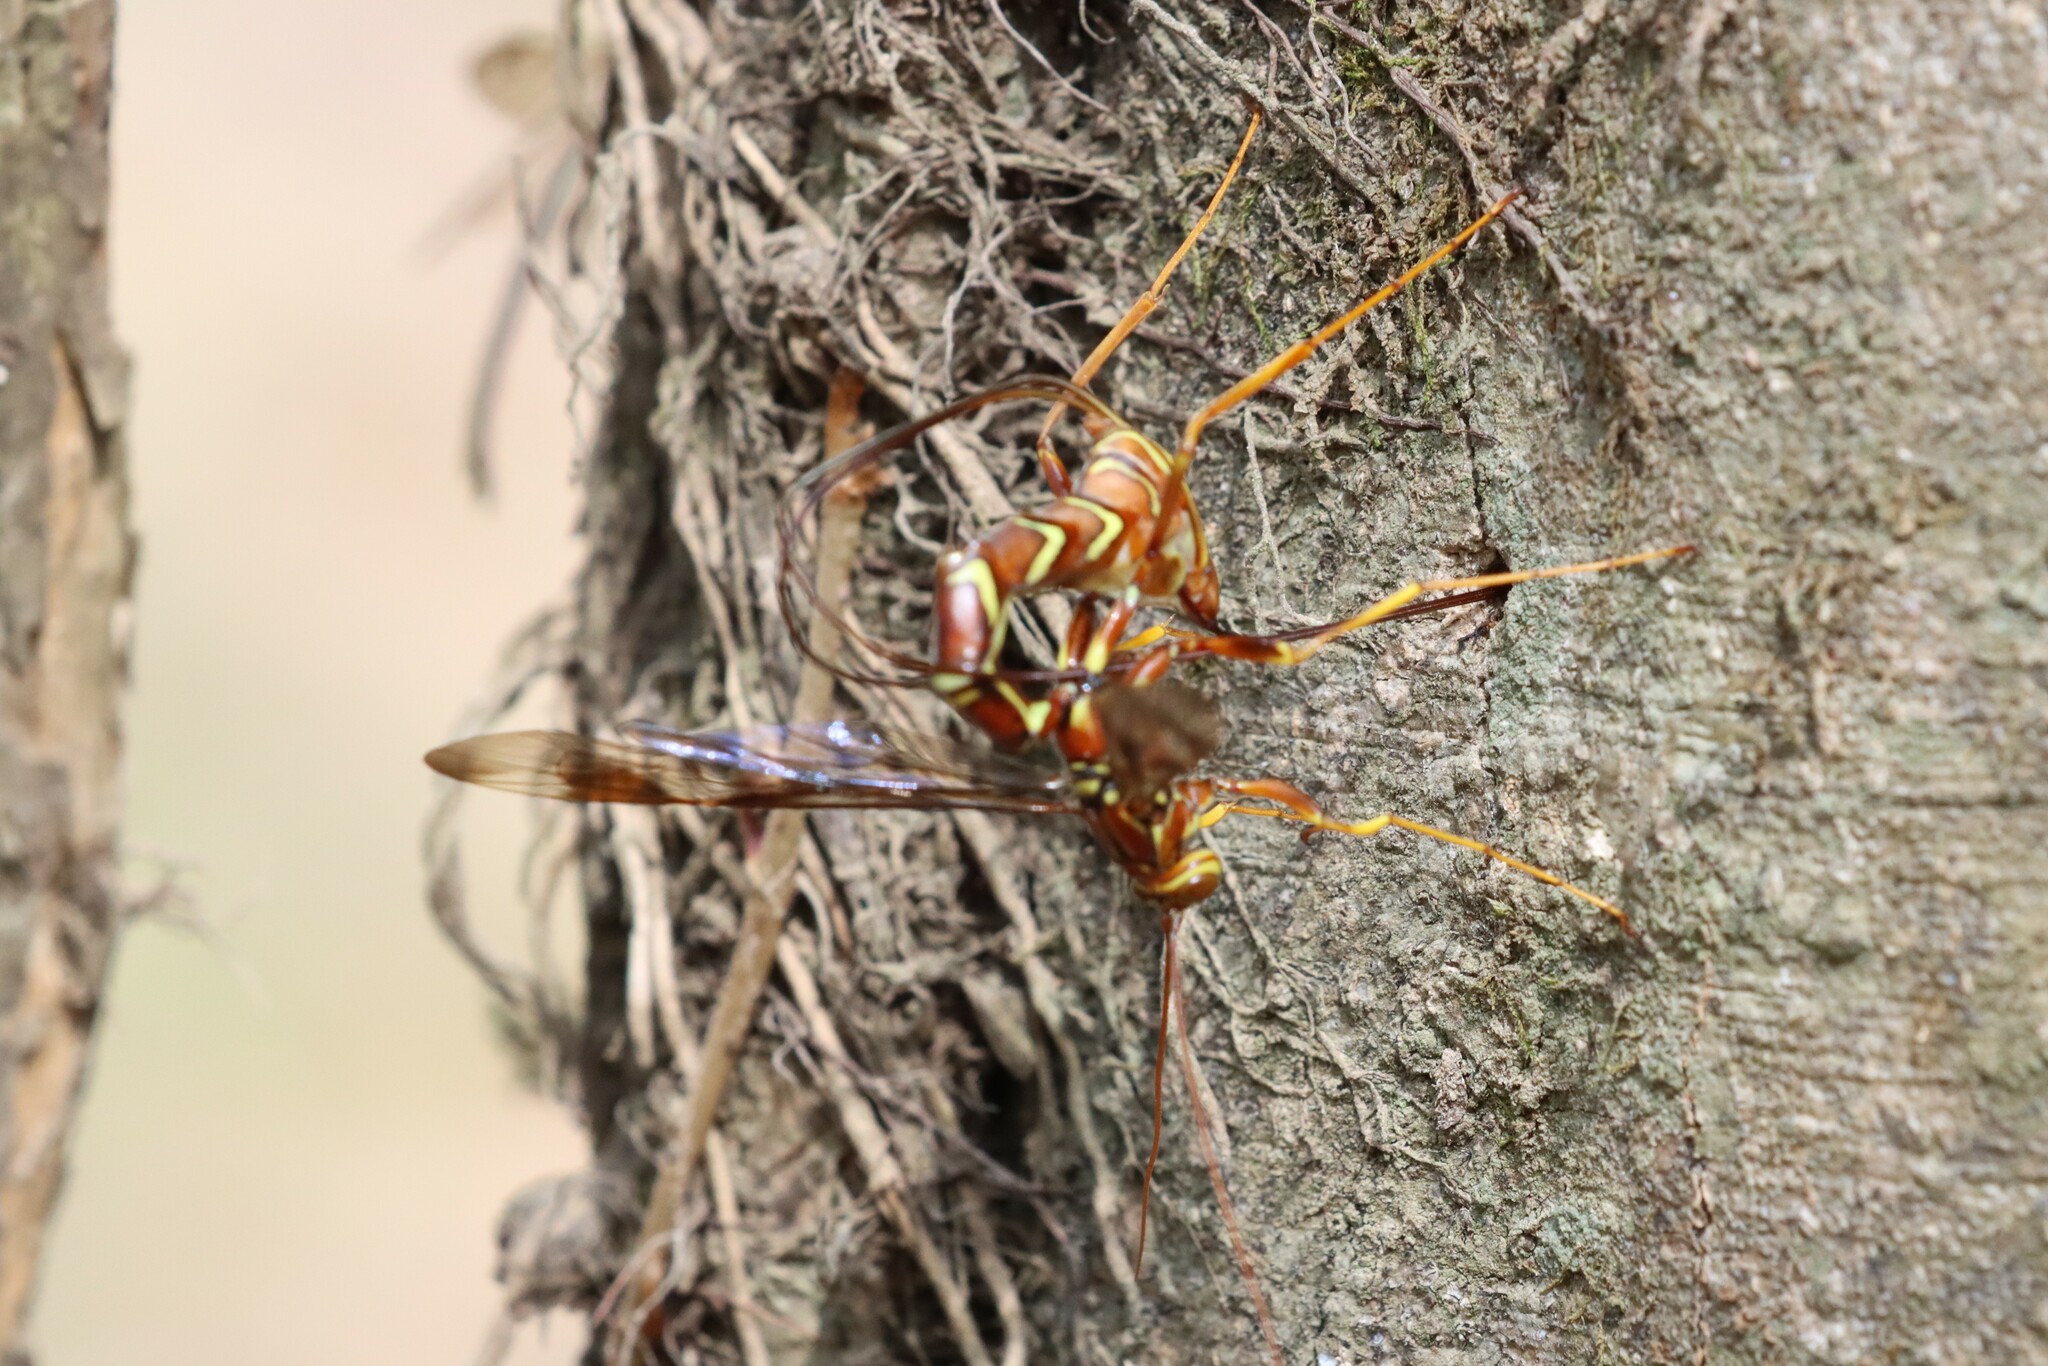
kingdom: Animalia
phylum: Arthropoda
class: Insecta
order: Hymenoptera
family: Ichneumonidae
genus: Megarhyssa
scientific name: Megarhyssa macrura
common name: Long-tailed giant ichneumonid wasp
